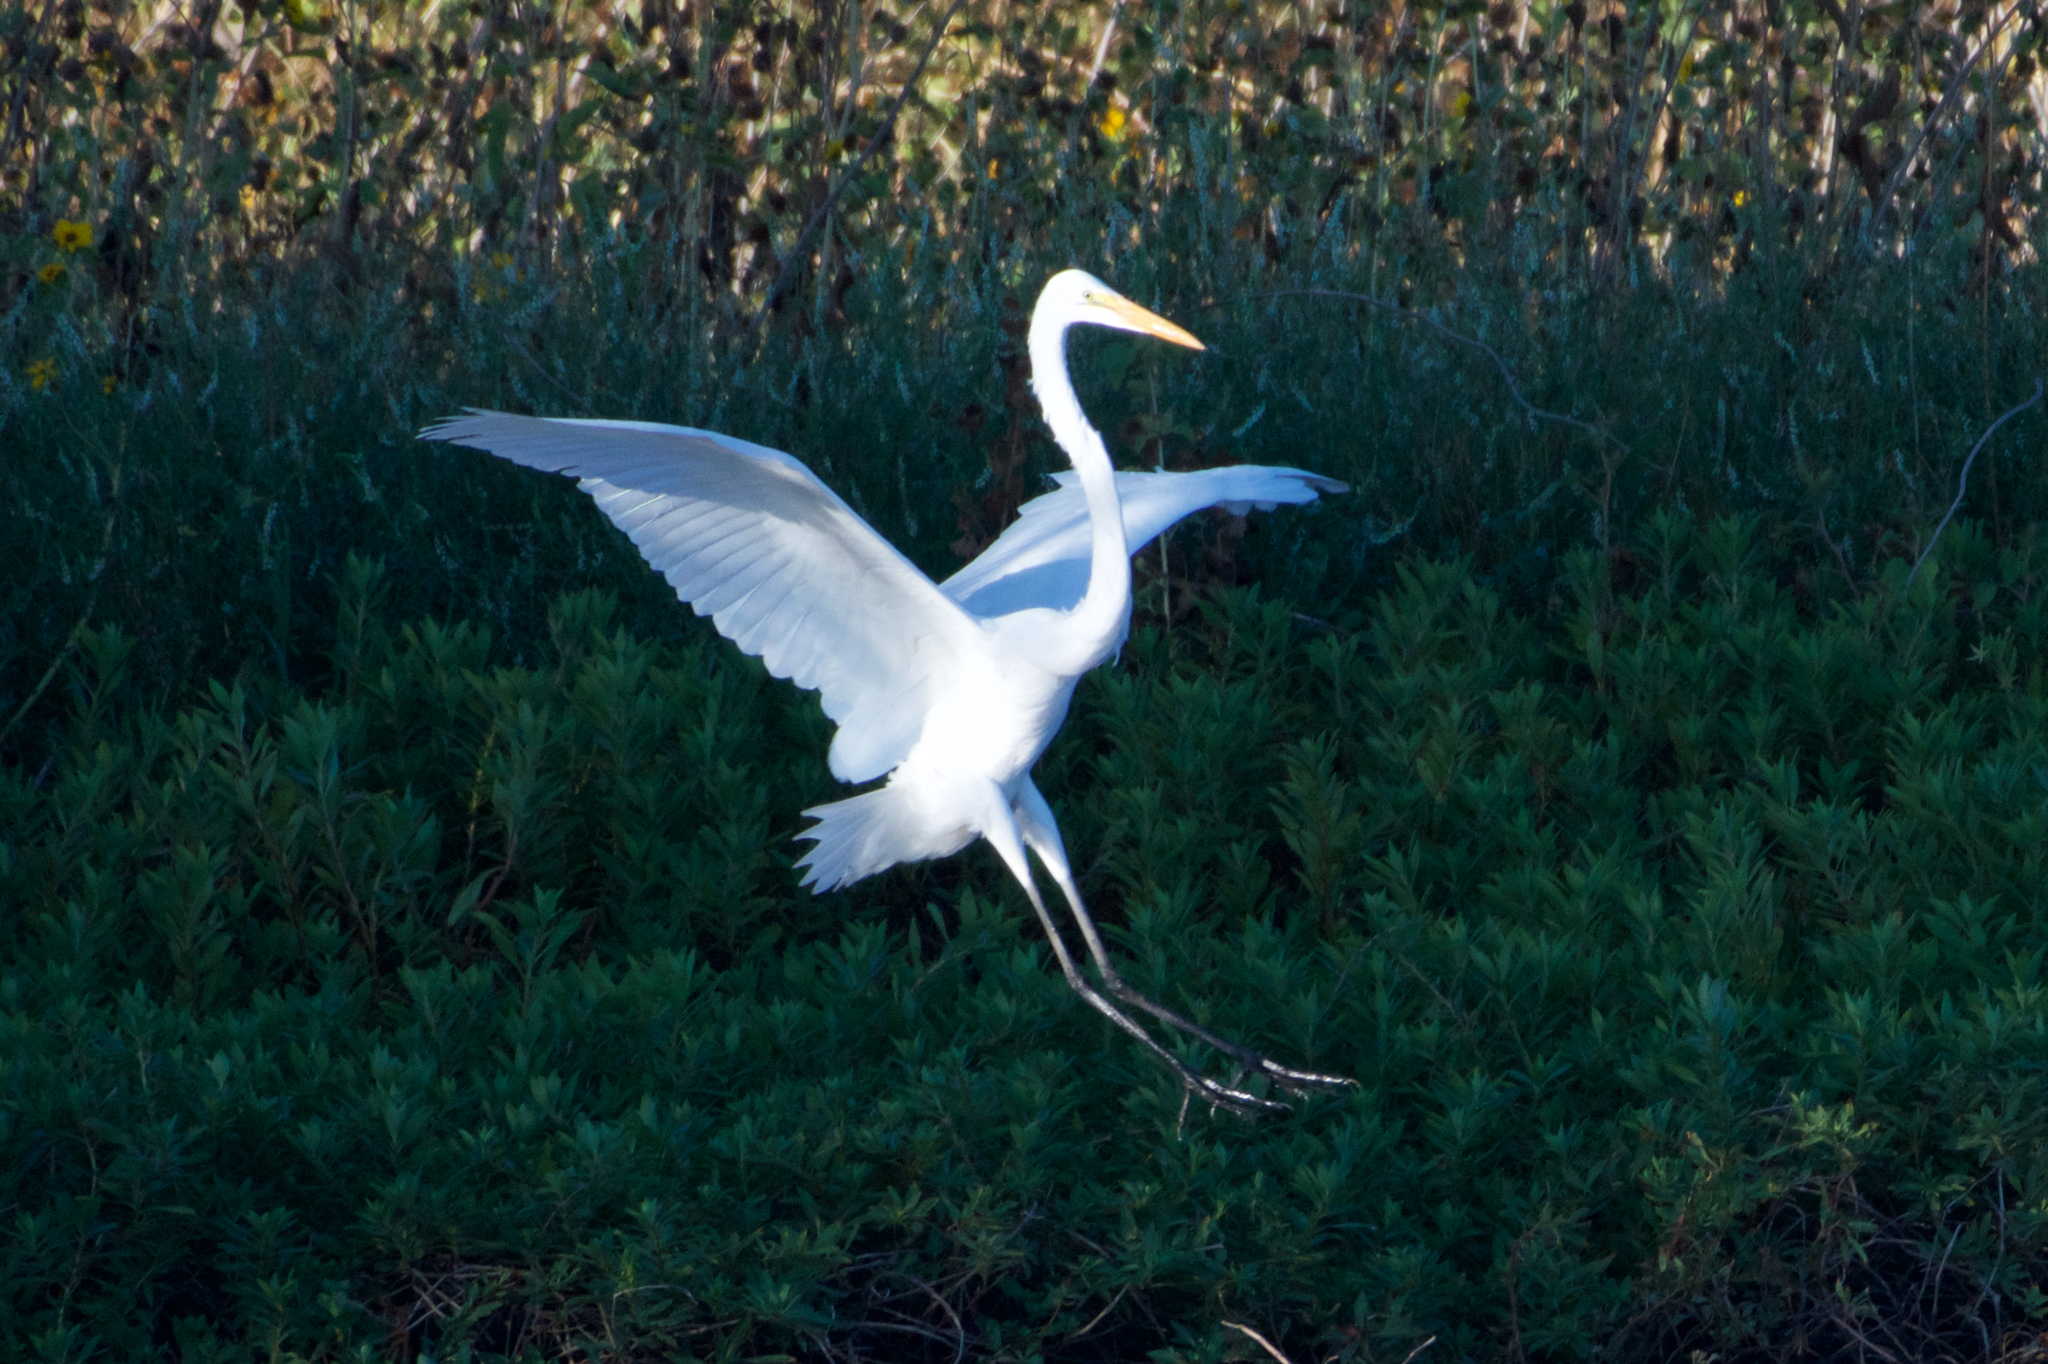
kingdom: Animalia
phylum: Chordata
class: Aves
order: Pelecaniformes
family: Ardeidae
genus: Ardea
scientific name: Ardea alba
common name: Great egret
